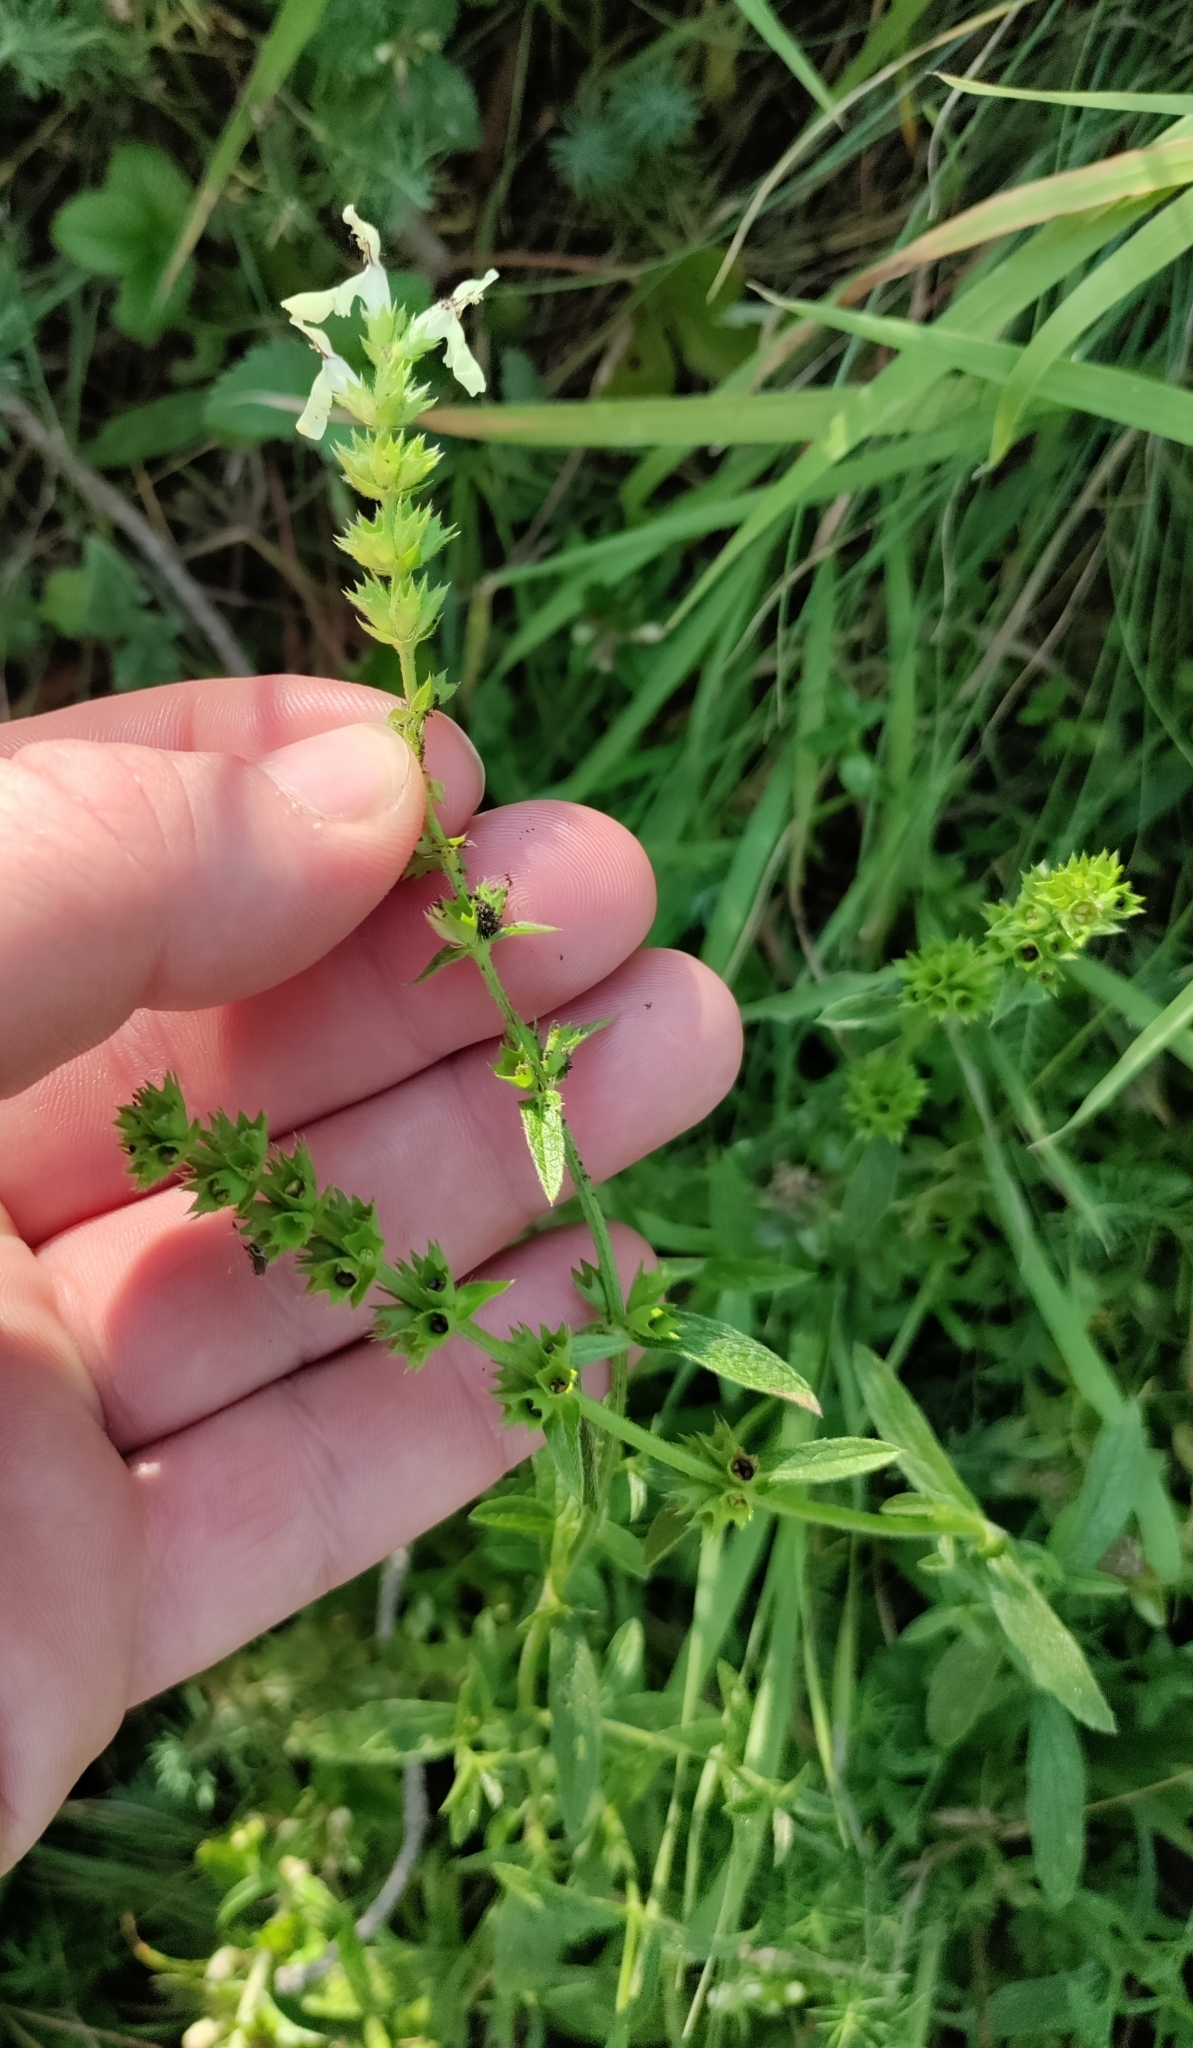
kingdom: Plantae
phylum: Tracheophyta
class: Magnoliopsida
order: Lamiales
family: Lamiaceae
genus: Stachys
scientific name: Stachys recta
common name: Perennial yellow-woundwort
